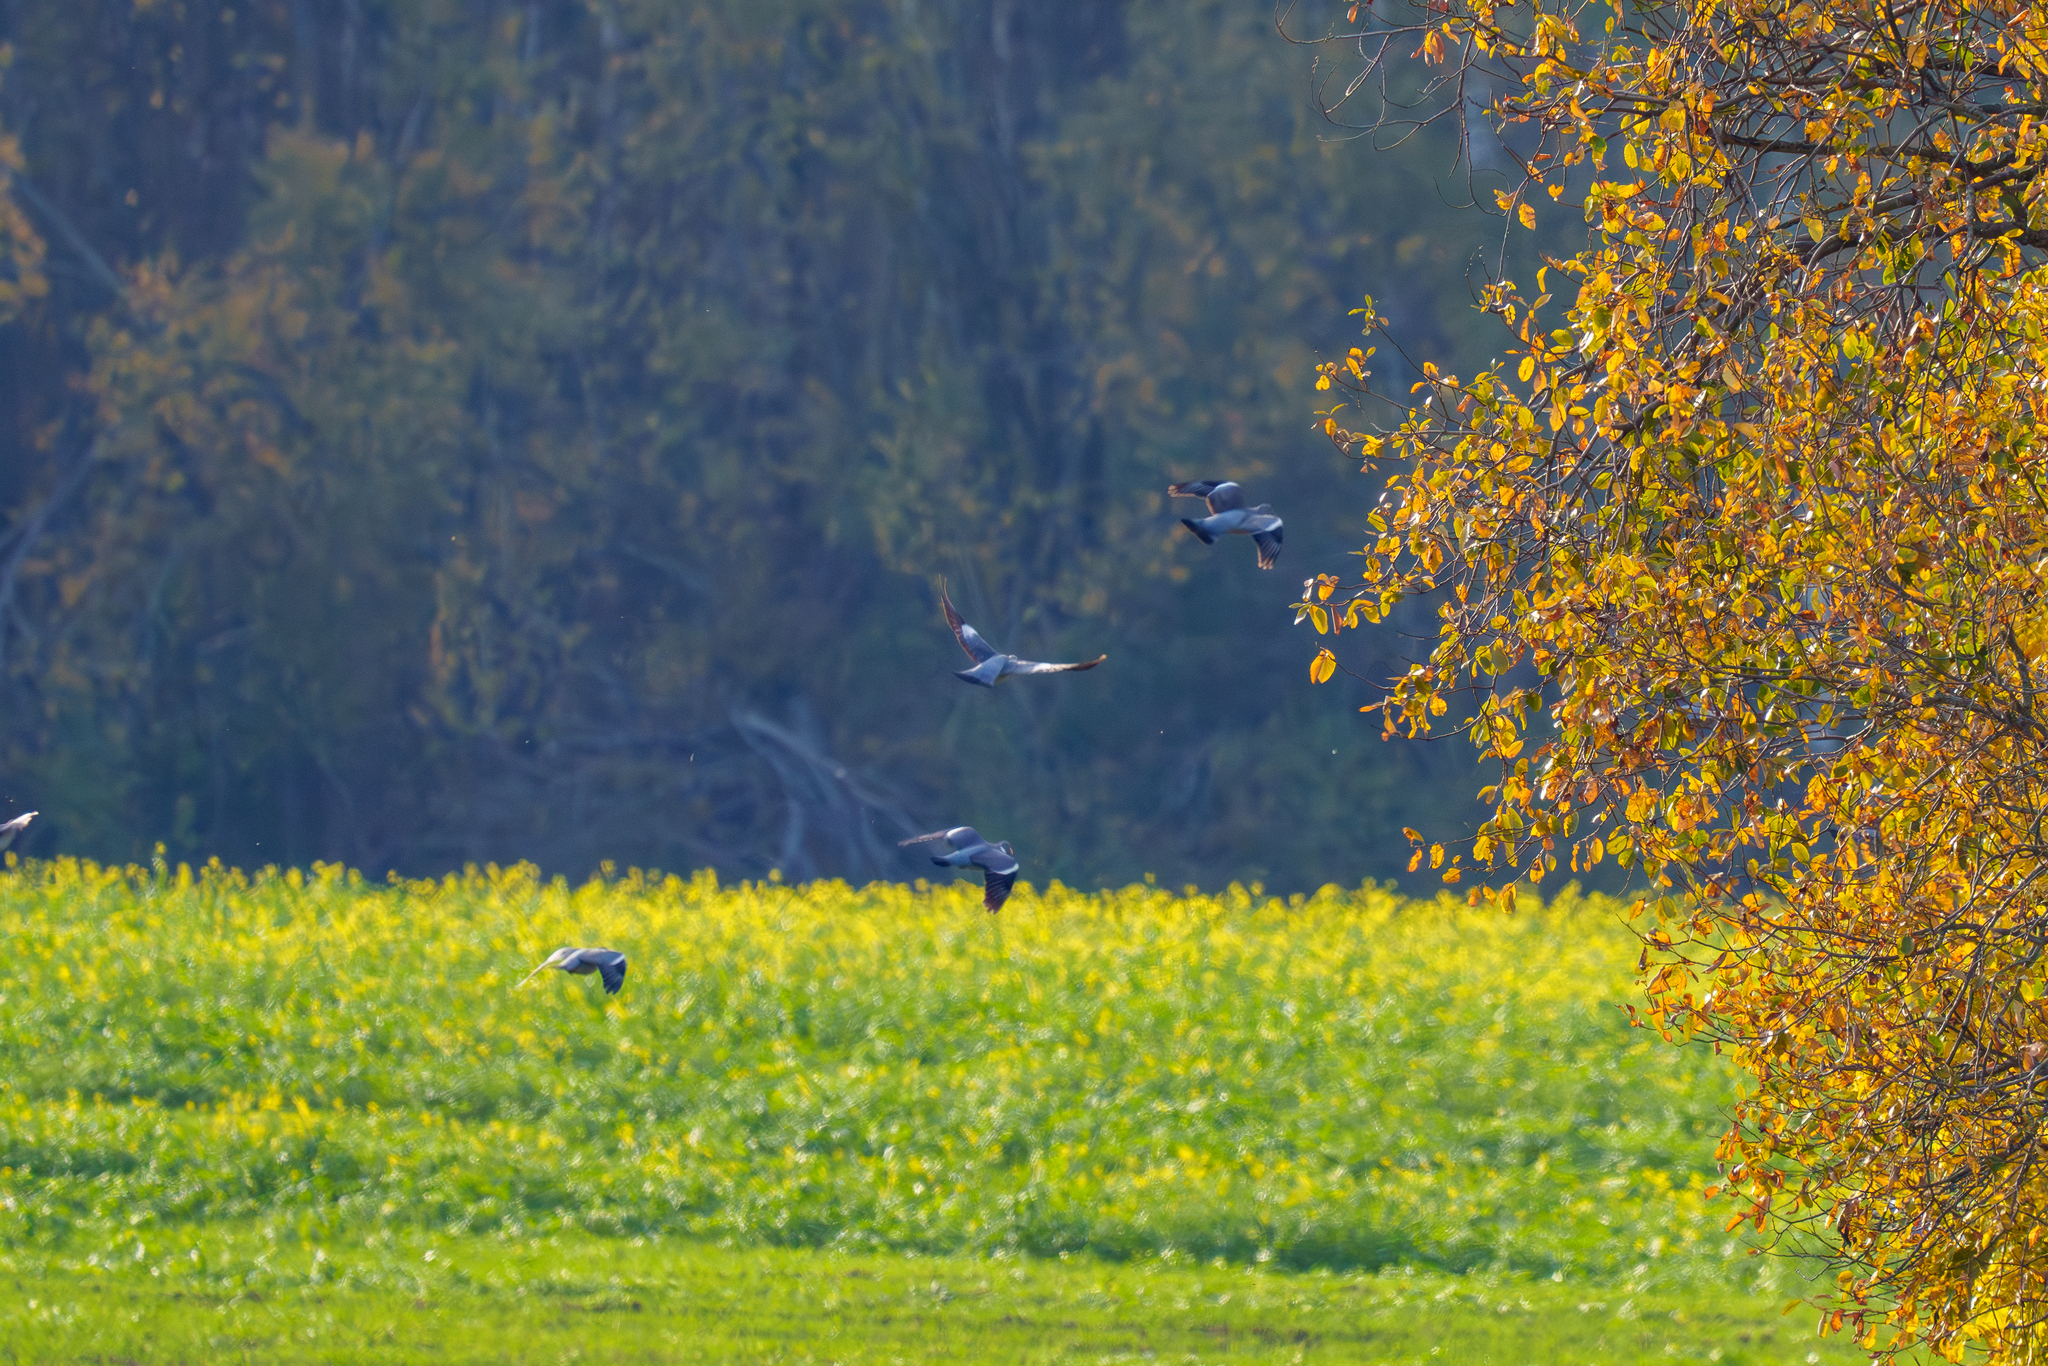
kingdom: Animalia
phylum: Chordata
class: Aves
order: Columbiformes
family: Columbidae
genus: Columba
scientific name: Columba palumbus
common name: Common wood pigeon
